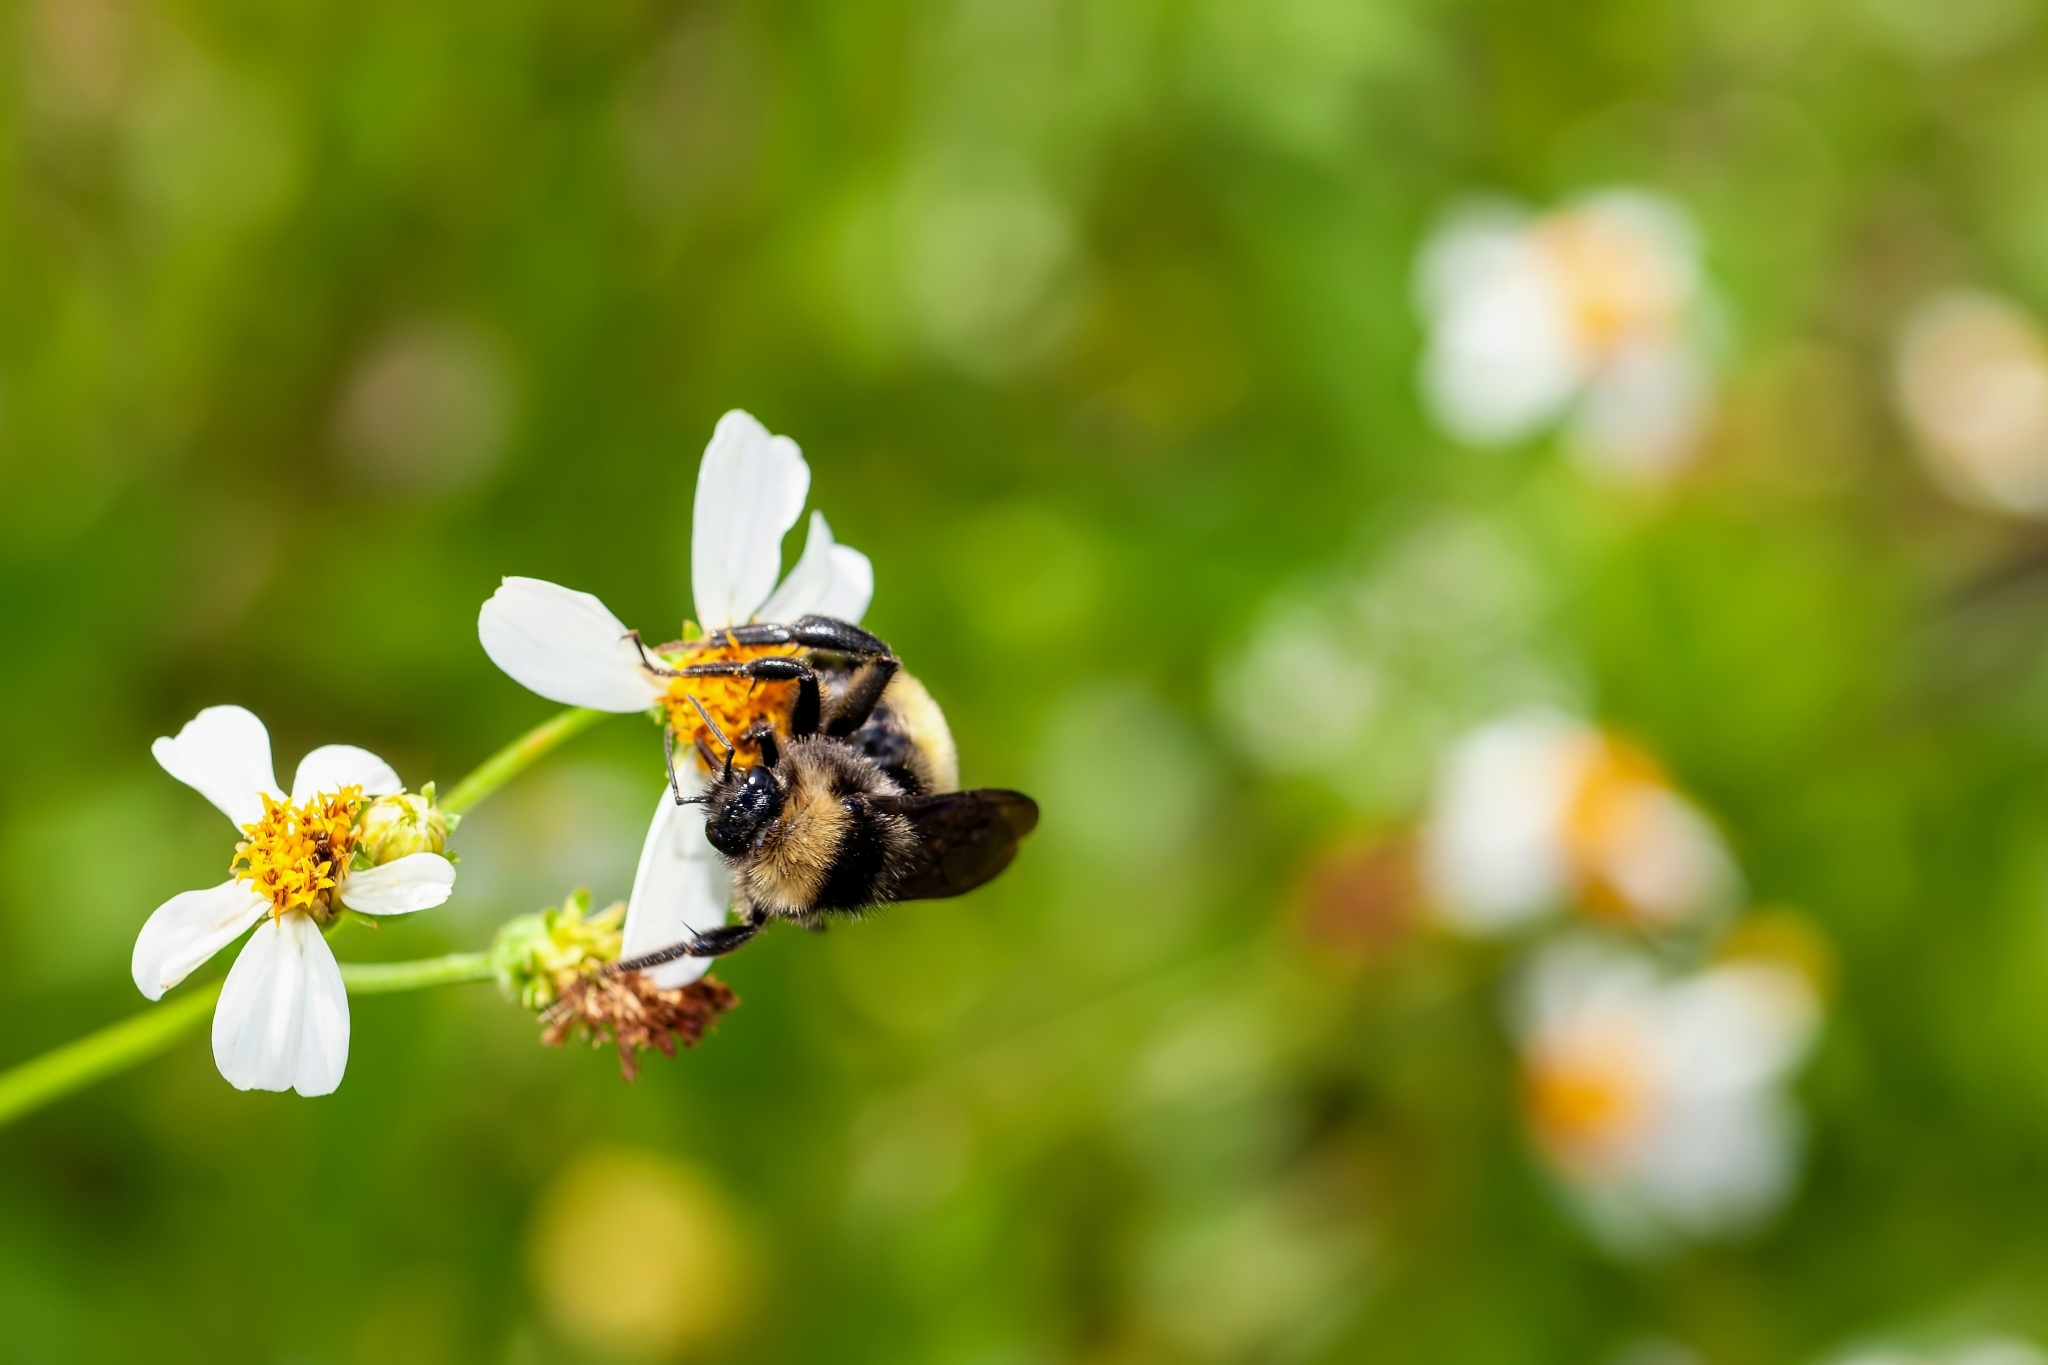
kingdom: Animalia
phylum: Arthropoda
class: Insecta
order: Hymenoptera
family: Apidae
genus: Bombus
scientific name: Bombus pensylvanicus
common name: Bumble bee
